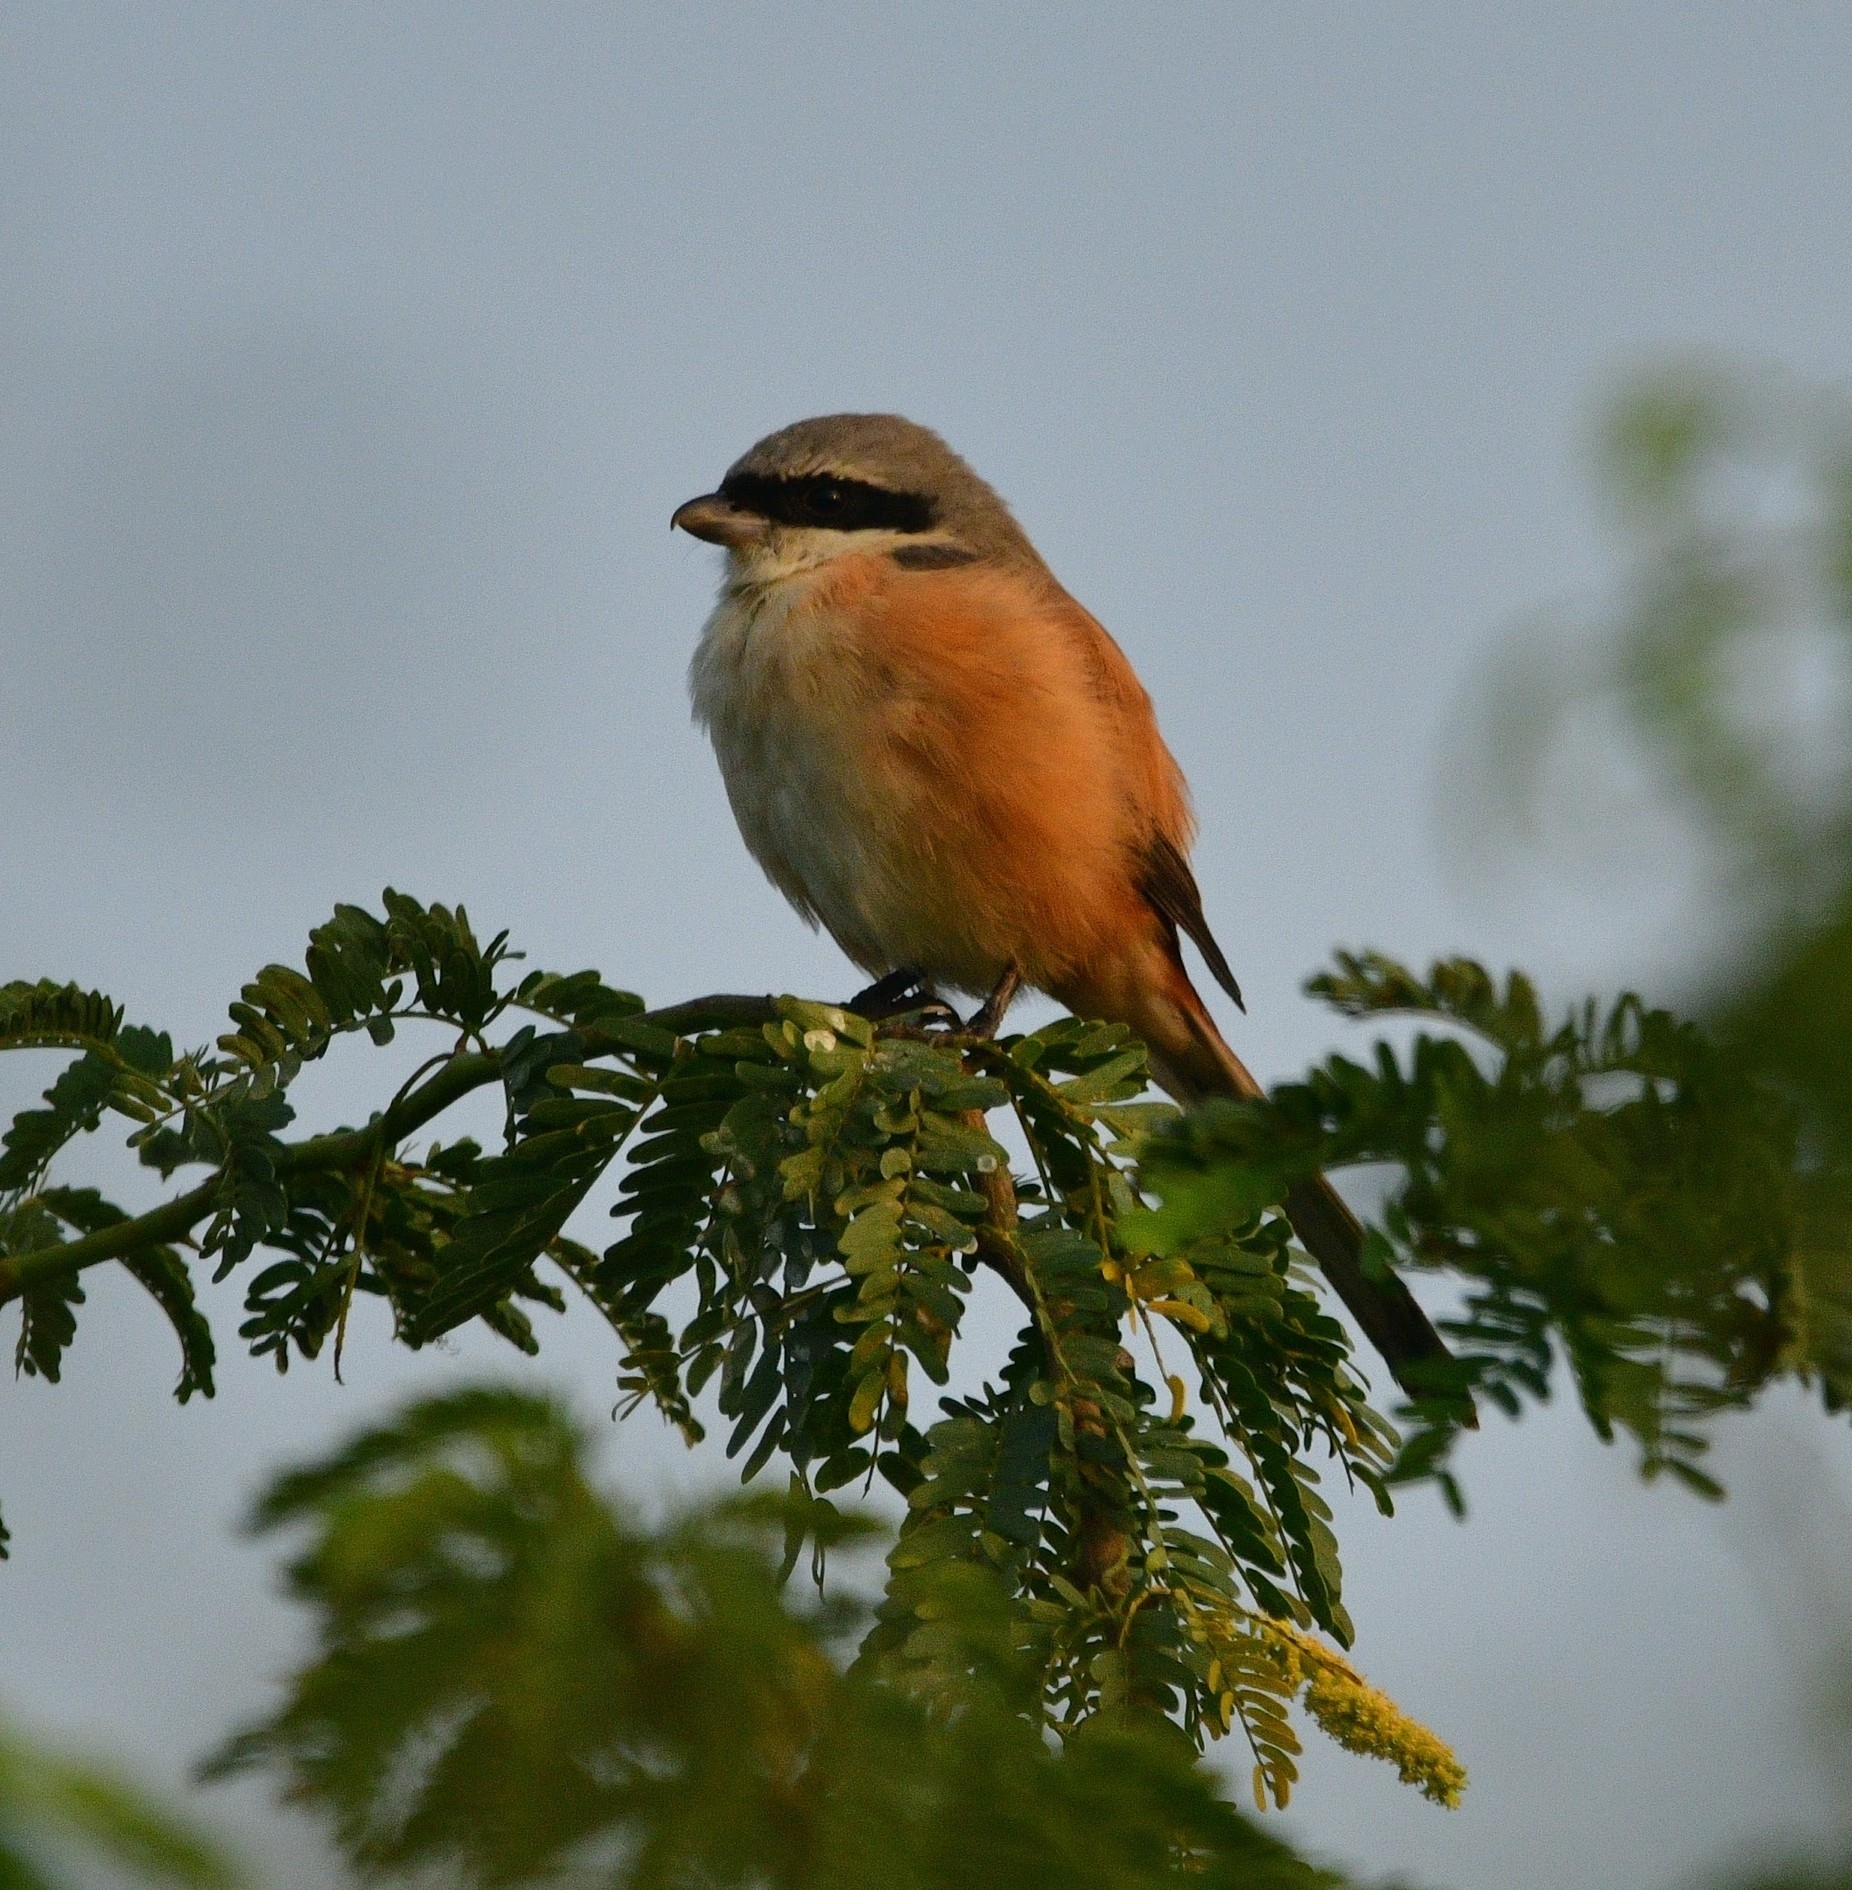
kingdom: Animalia
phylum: Chordata
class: Aves
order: Passeriformes
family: Laniidae
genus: Lanius
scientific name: Lanius schach
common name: Long-tailed shrike
